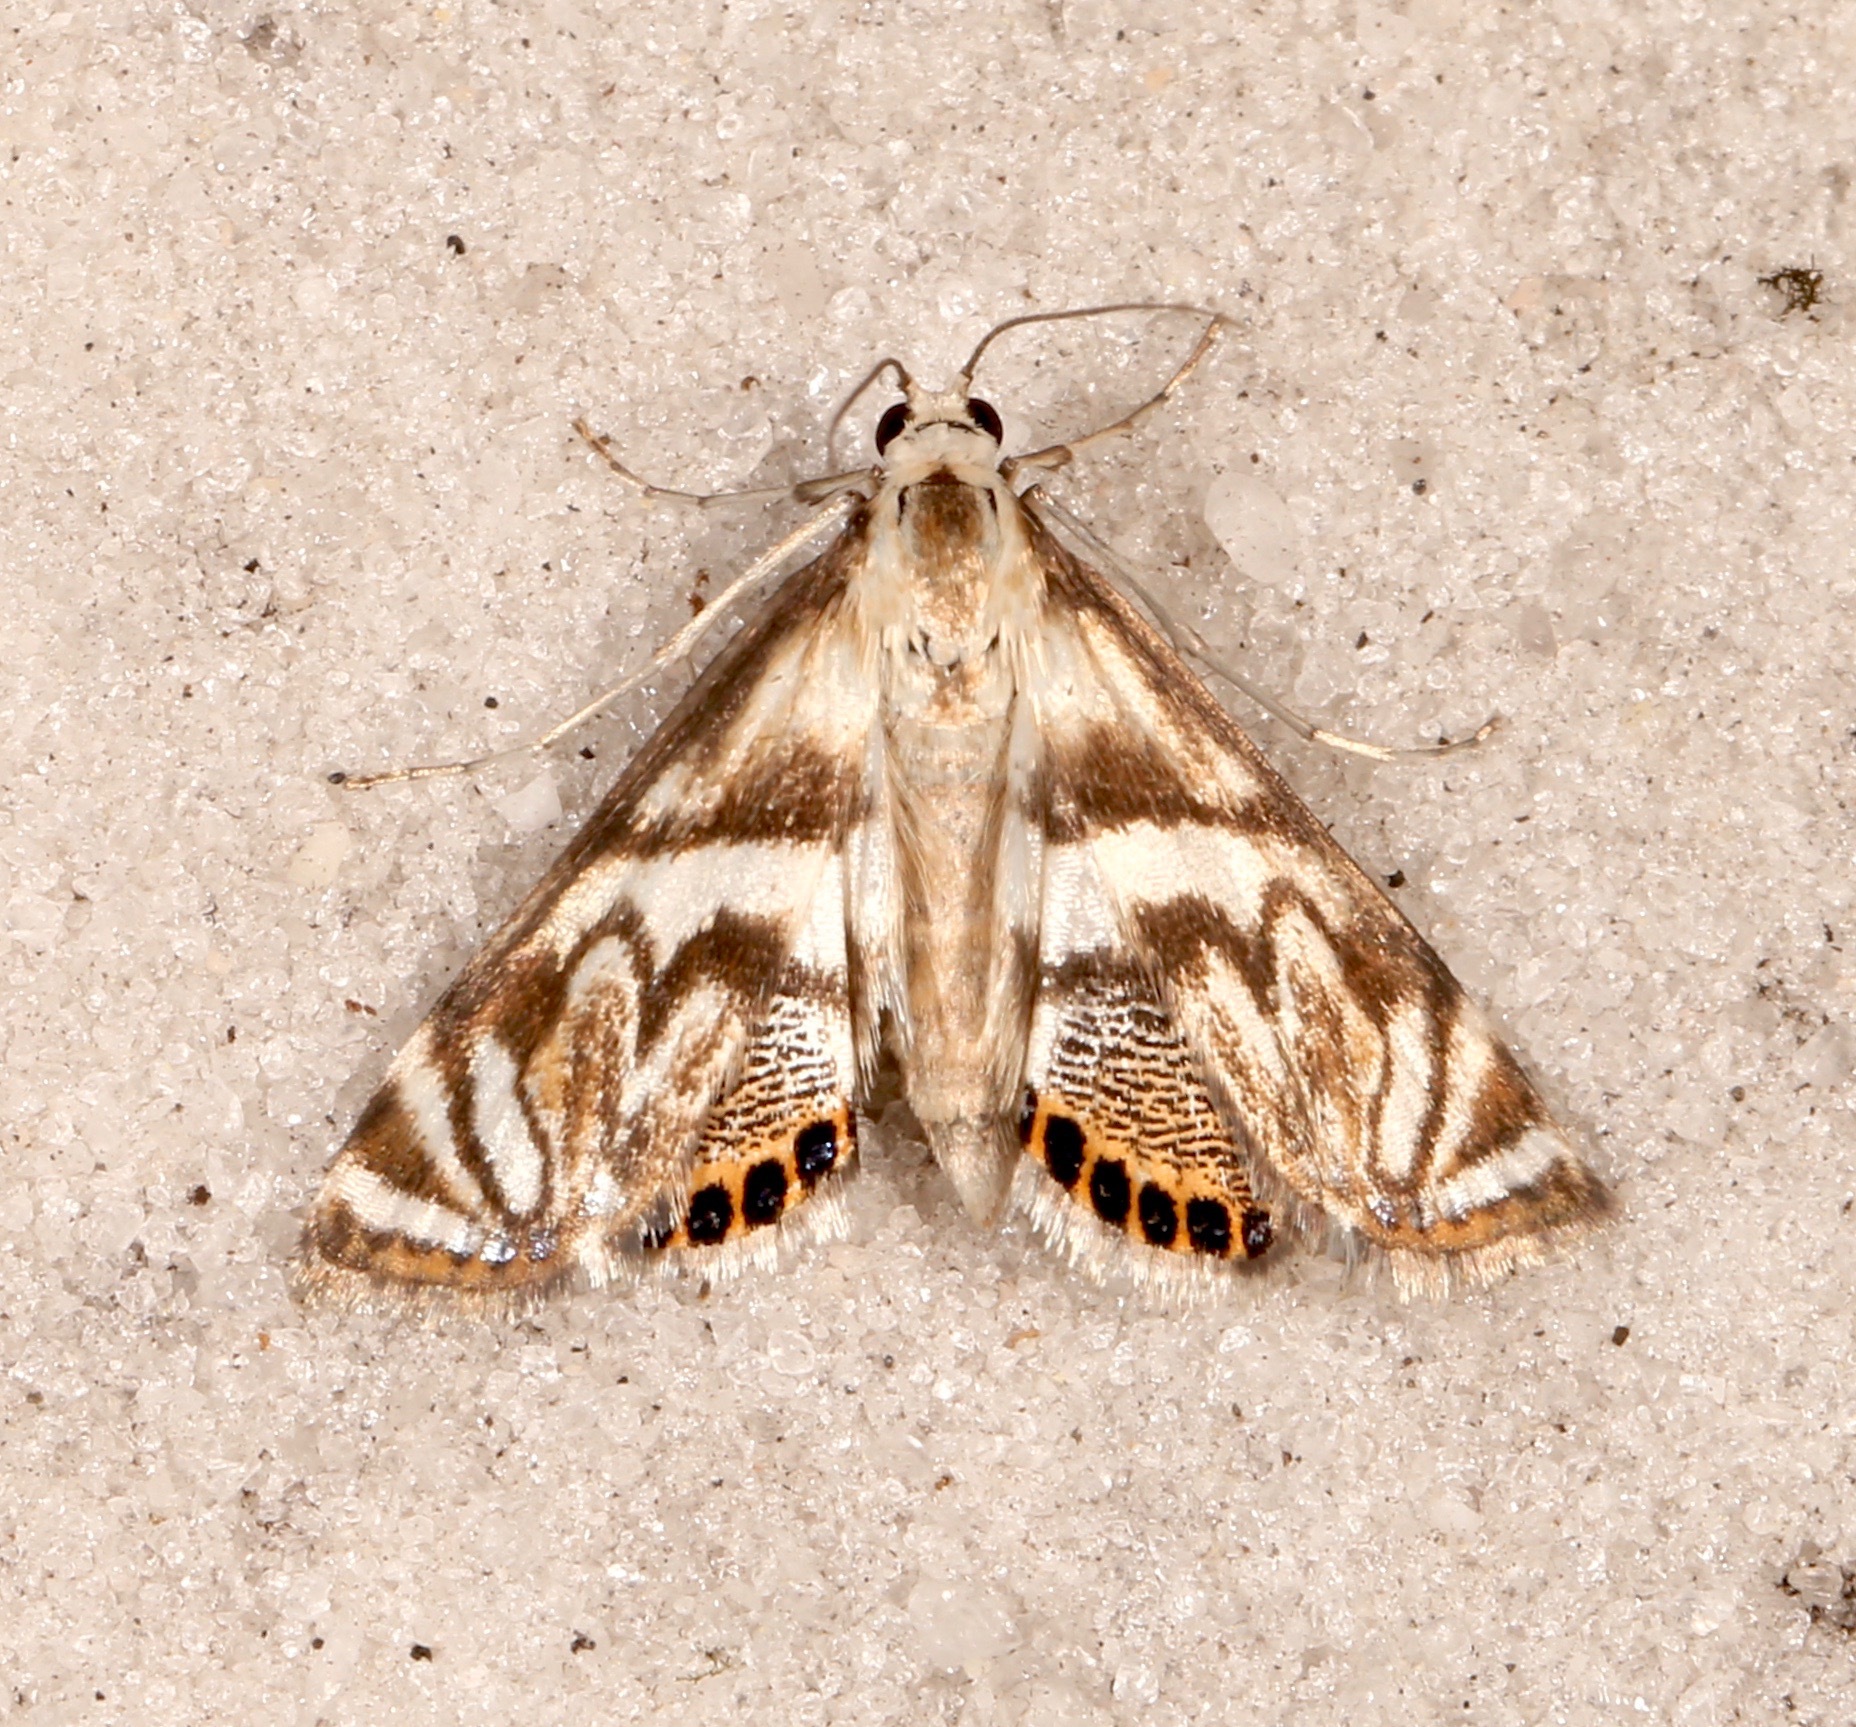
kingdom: Animalia
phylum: Arthropoda
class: Insecta
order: Lepidoptera
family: Crambidae
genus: Neocataclysta
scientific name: Neocataclysta magnificalis
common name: Scrollwork pyralid moth
